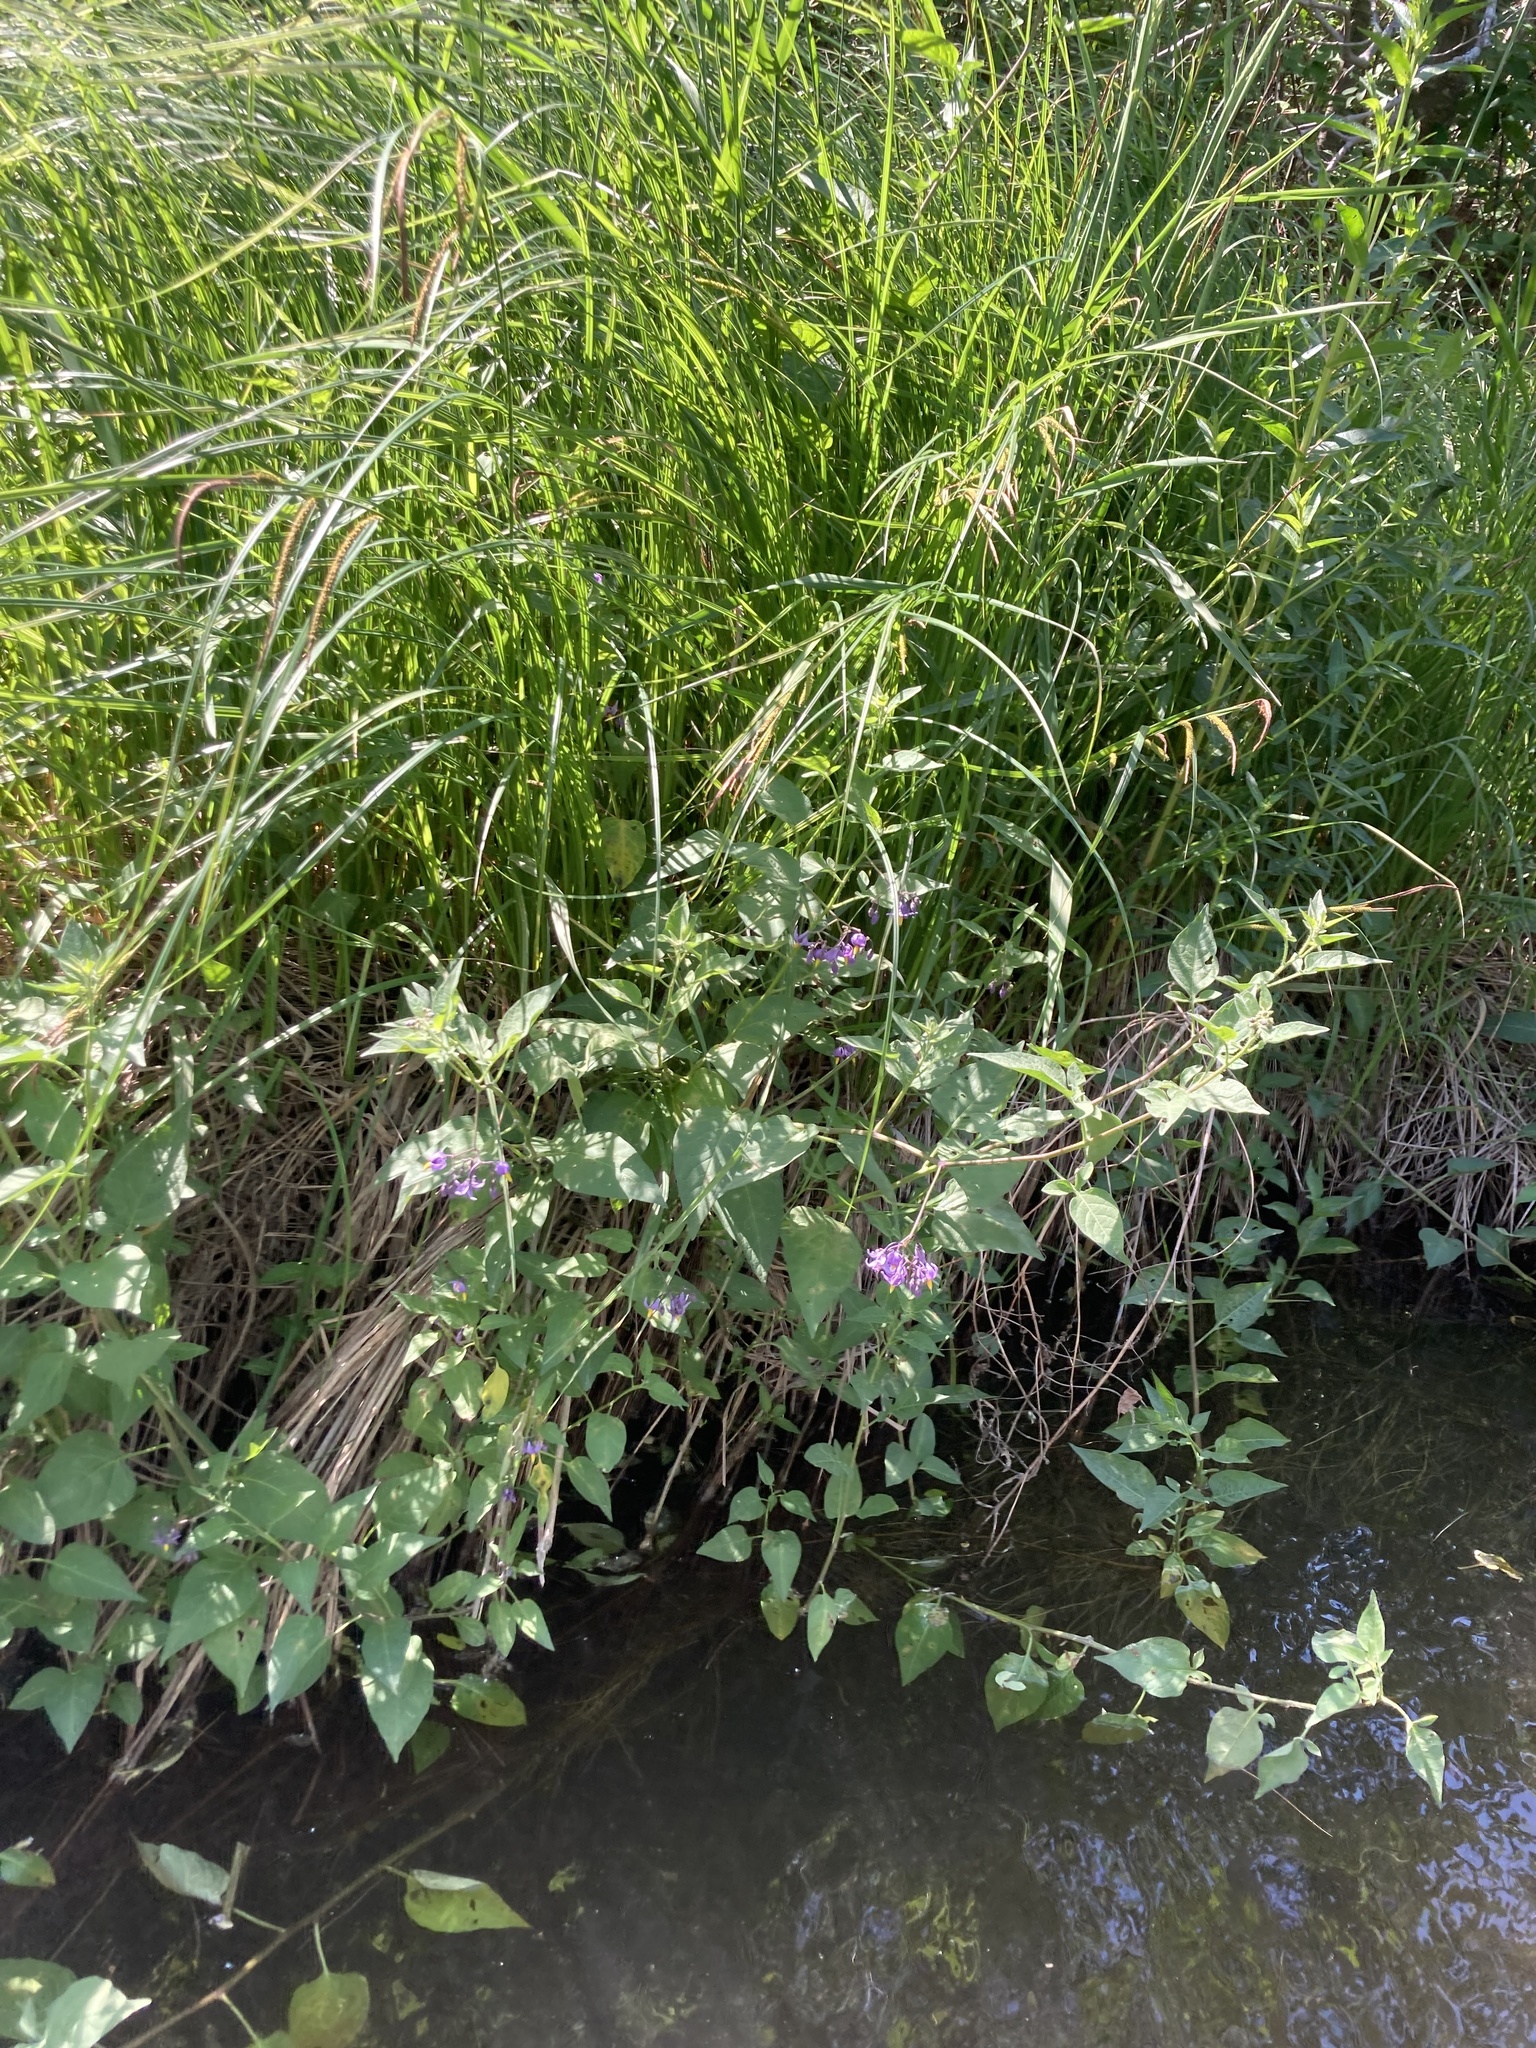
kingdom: Plantae
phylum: Tracheophyta
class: Magnoliopsida
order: Solanales
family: Solanaceae
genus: Solanum
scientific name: Solanum dulcamara
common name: Climbing nightshade
